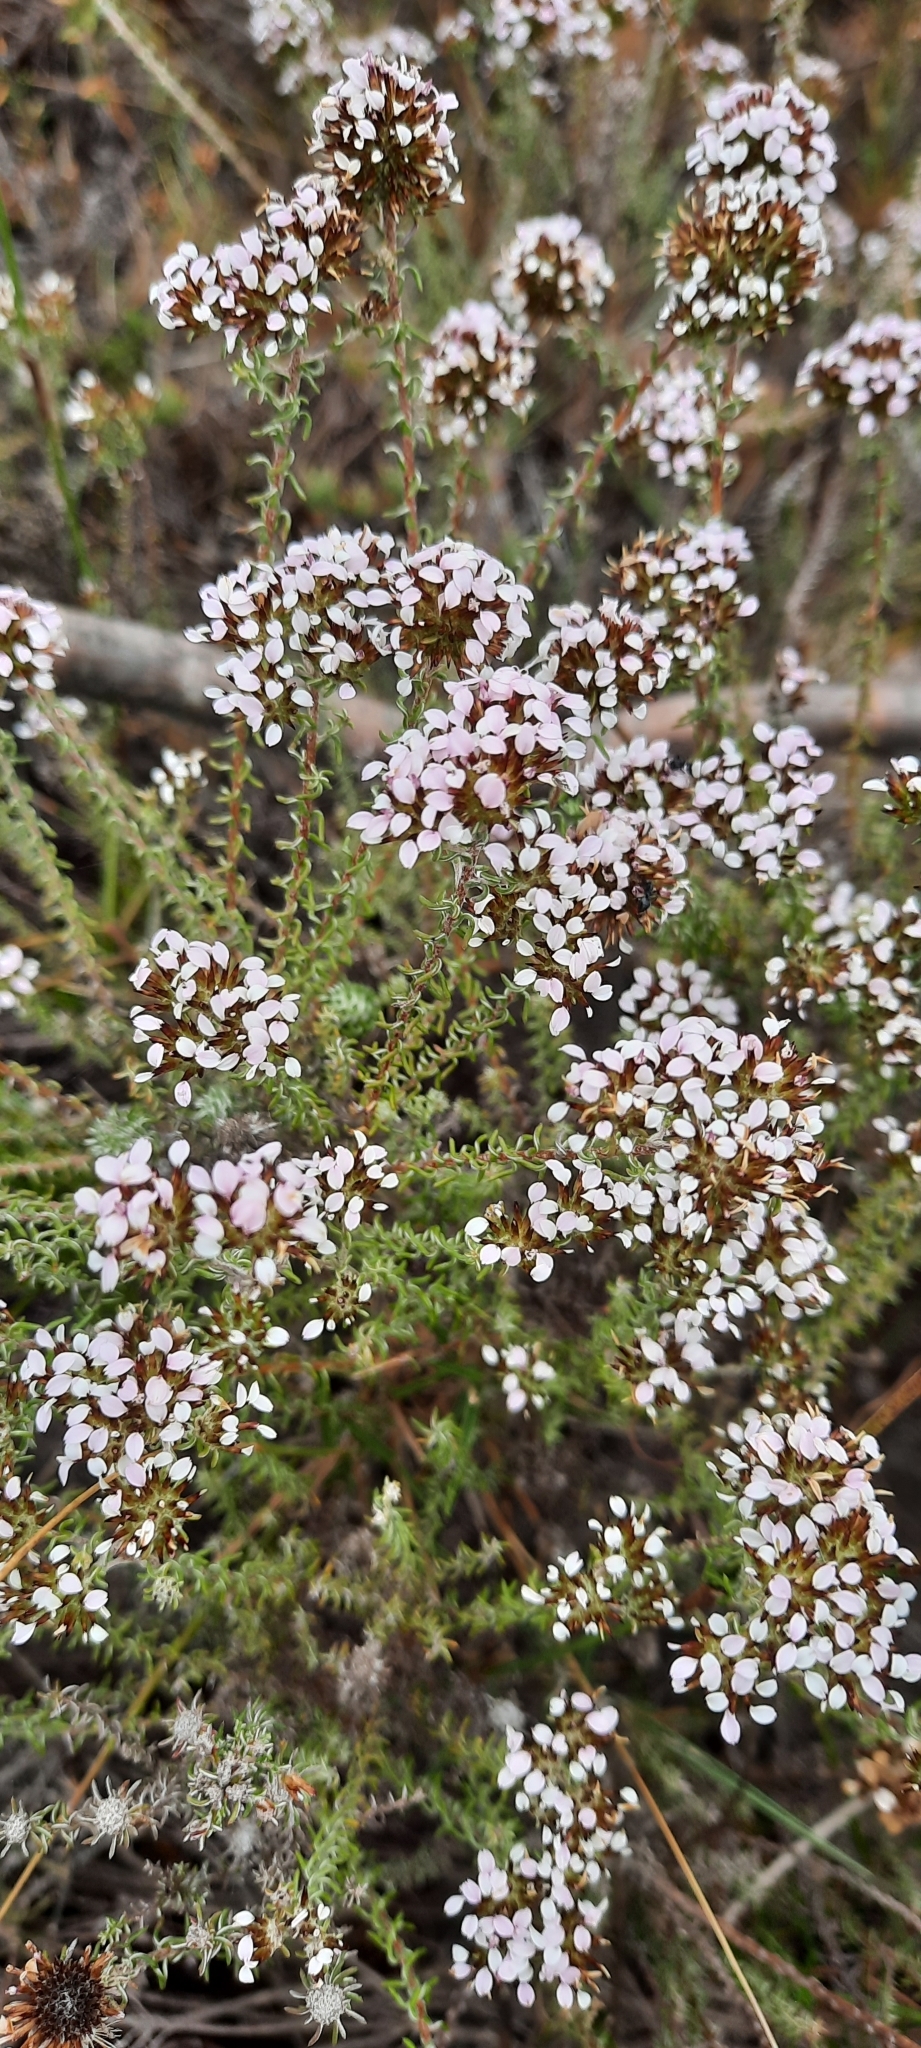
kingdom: Plantae
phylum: Tracheophyta
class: Magnoliopsida
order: Asterales
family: Asteraceae
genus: Disparago
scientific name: Disparago ericoides
